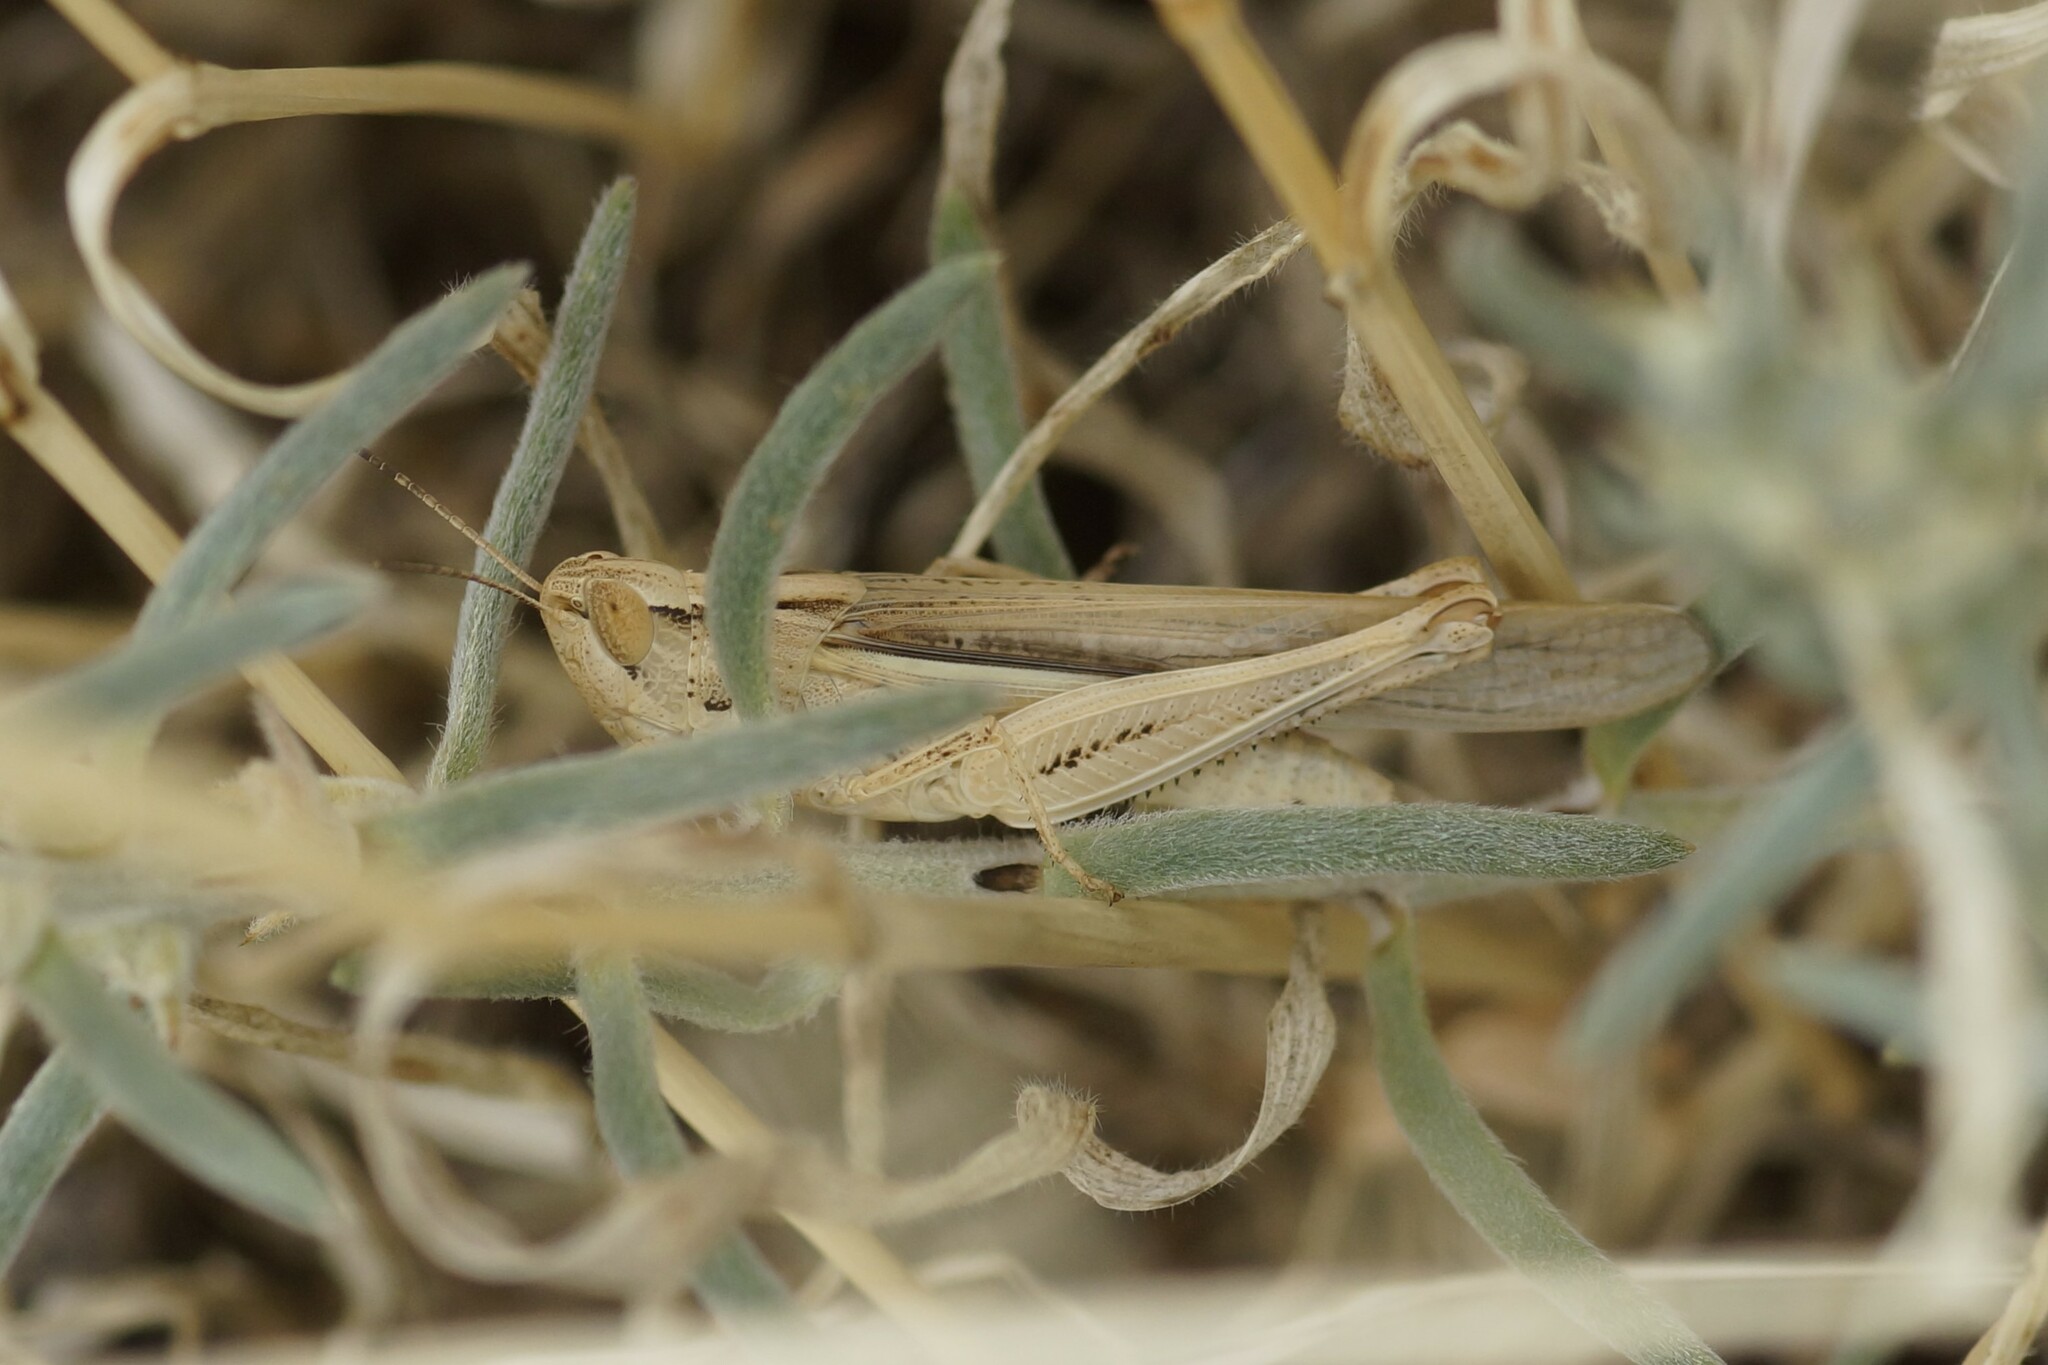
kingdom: Animalia
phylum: Arthropoda
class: Insecta
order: Orthoptera
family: Acrididae
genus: Aiolopus
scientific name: Aiolopus thalassinus
